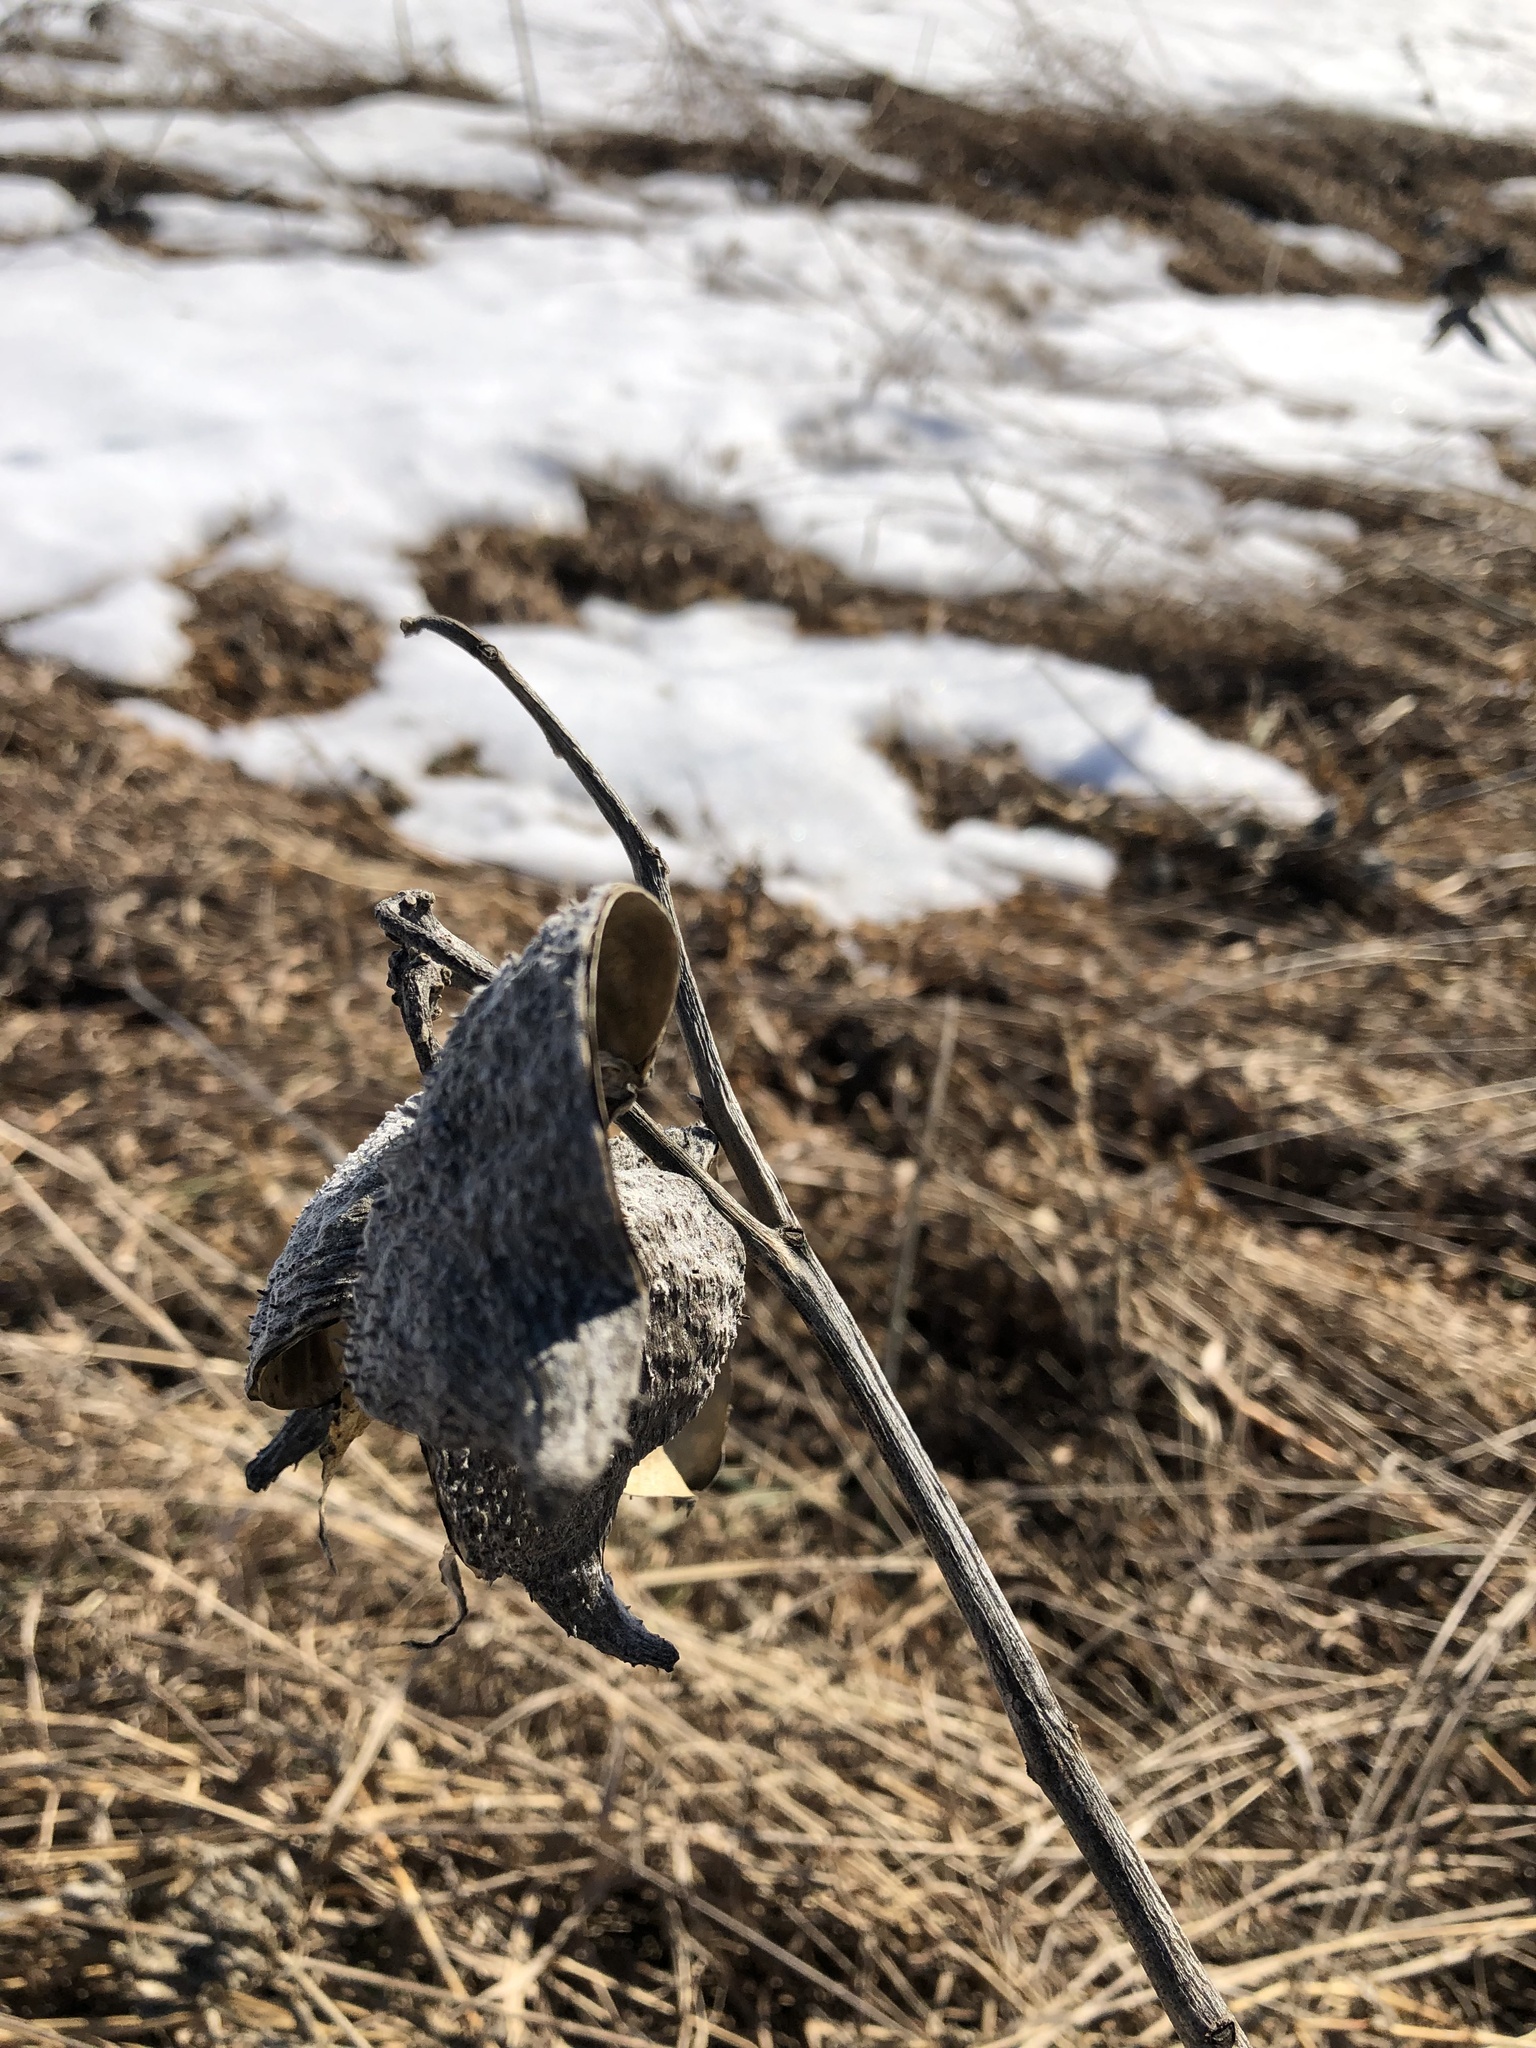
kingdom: Plantae
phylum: Tracheophyta
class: Magnoliopsida
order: Gentianales
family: Apocynaceae
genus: Asclepias
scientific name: Asclepias syriaca
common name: Common milkweed
